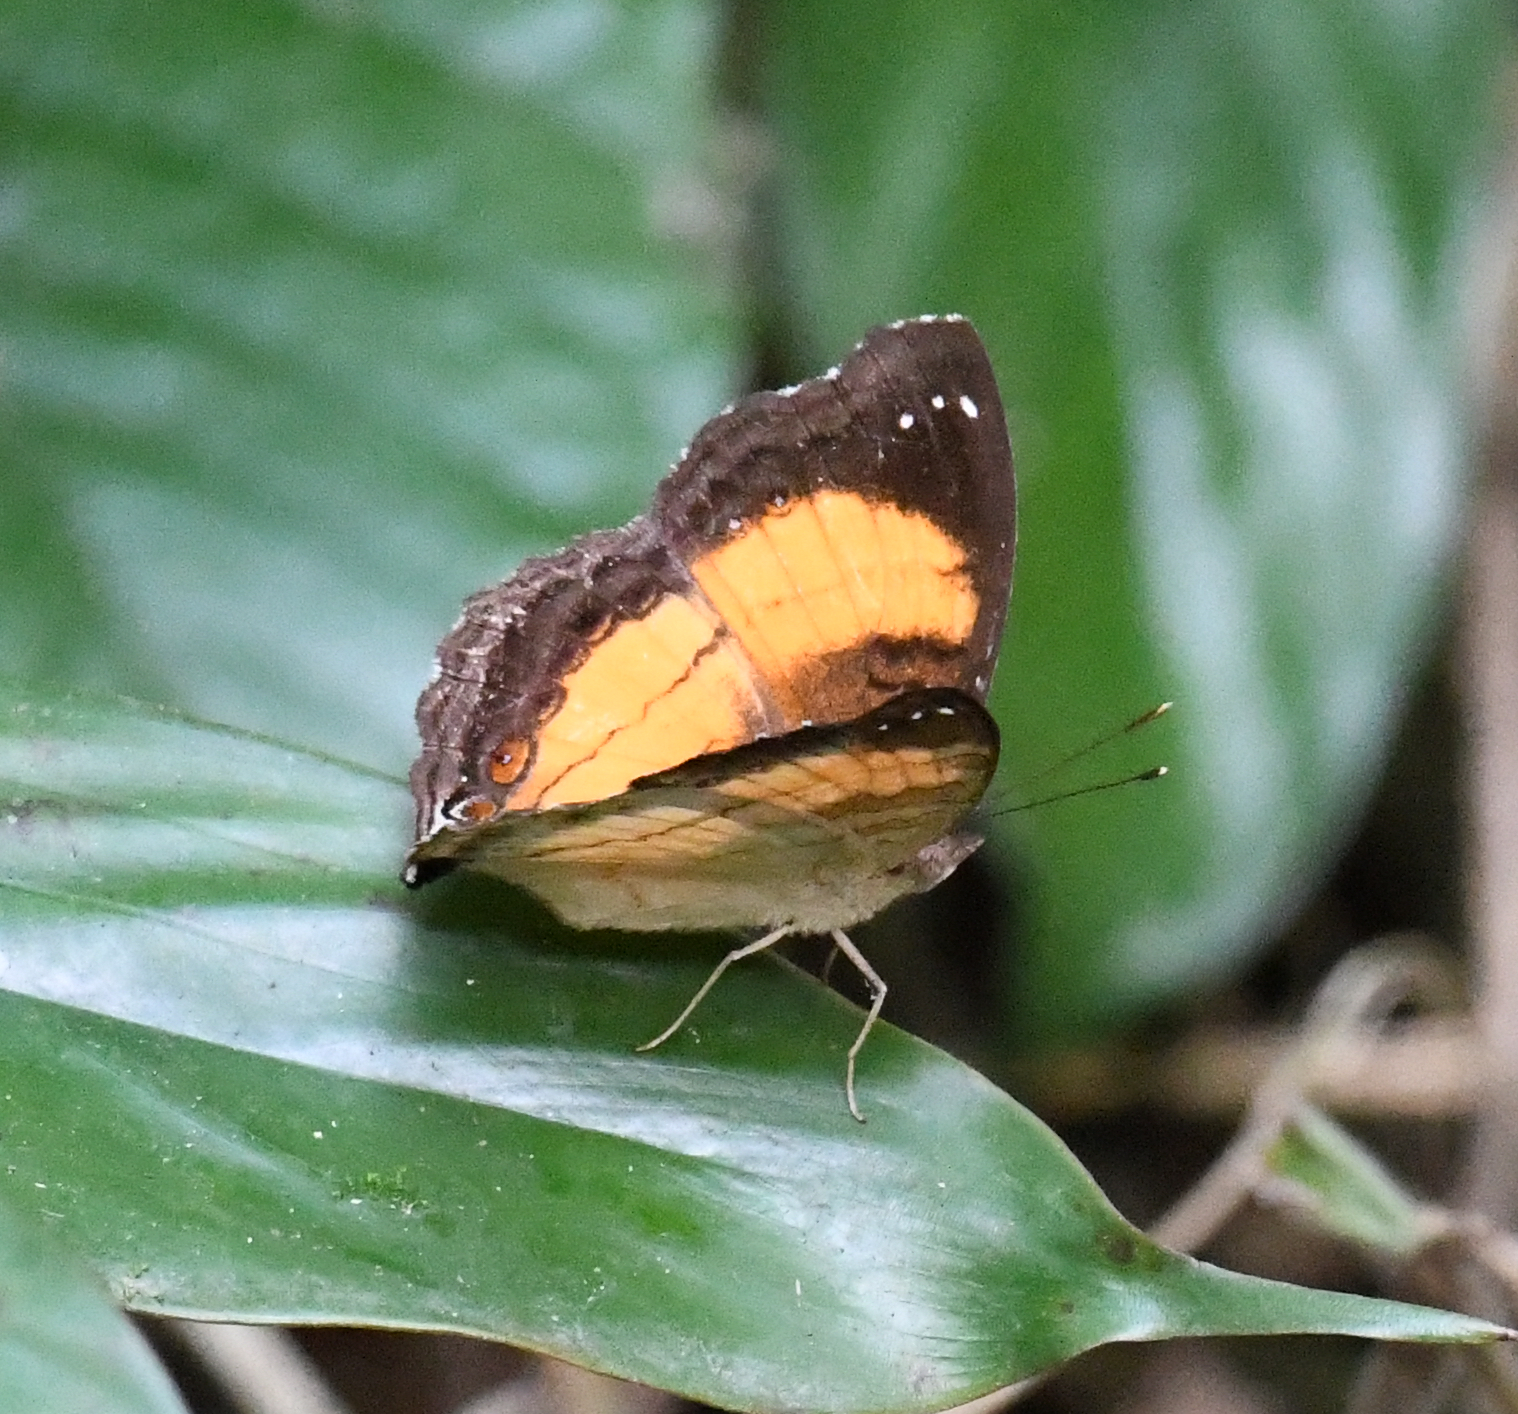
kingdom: Animalia
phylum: Arthropoda
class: Insecta
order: Lepidoptera
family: Nymphalidae
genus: Junonia
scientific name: Junonia terea
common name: Soldier pansy
